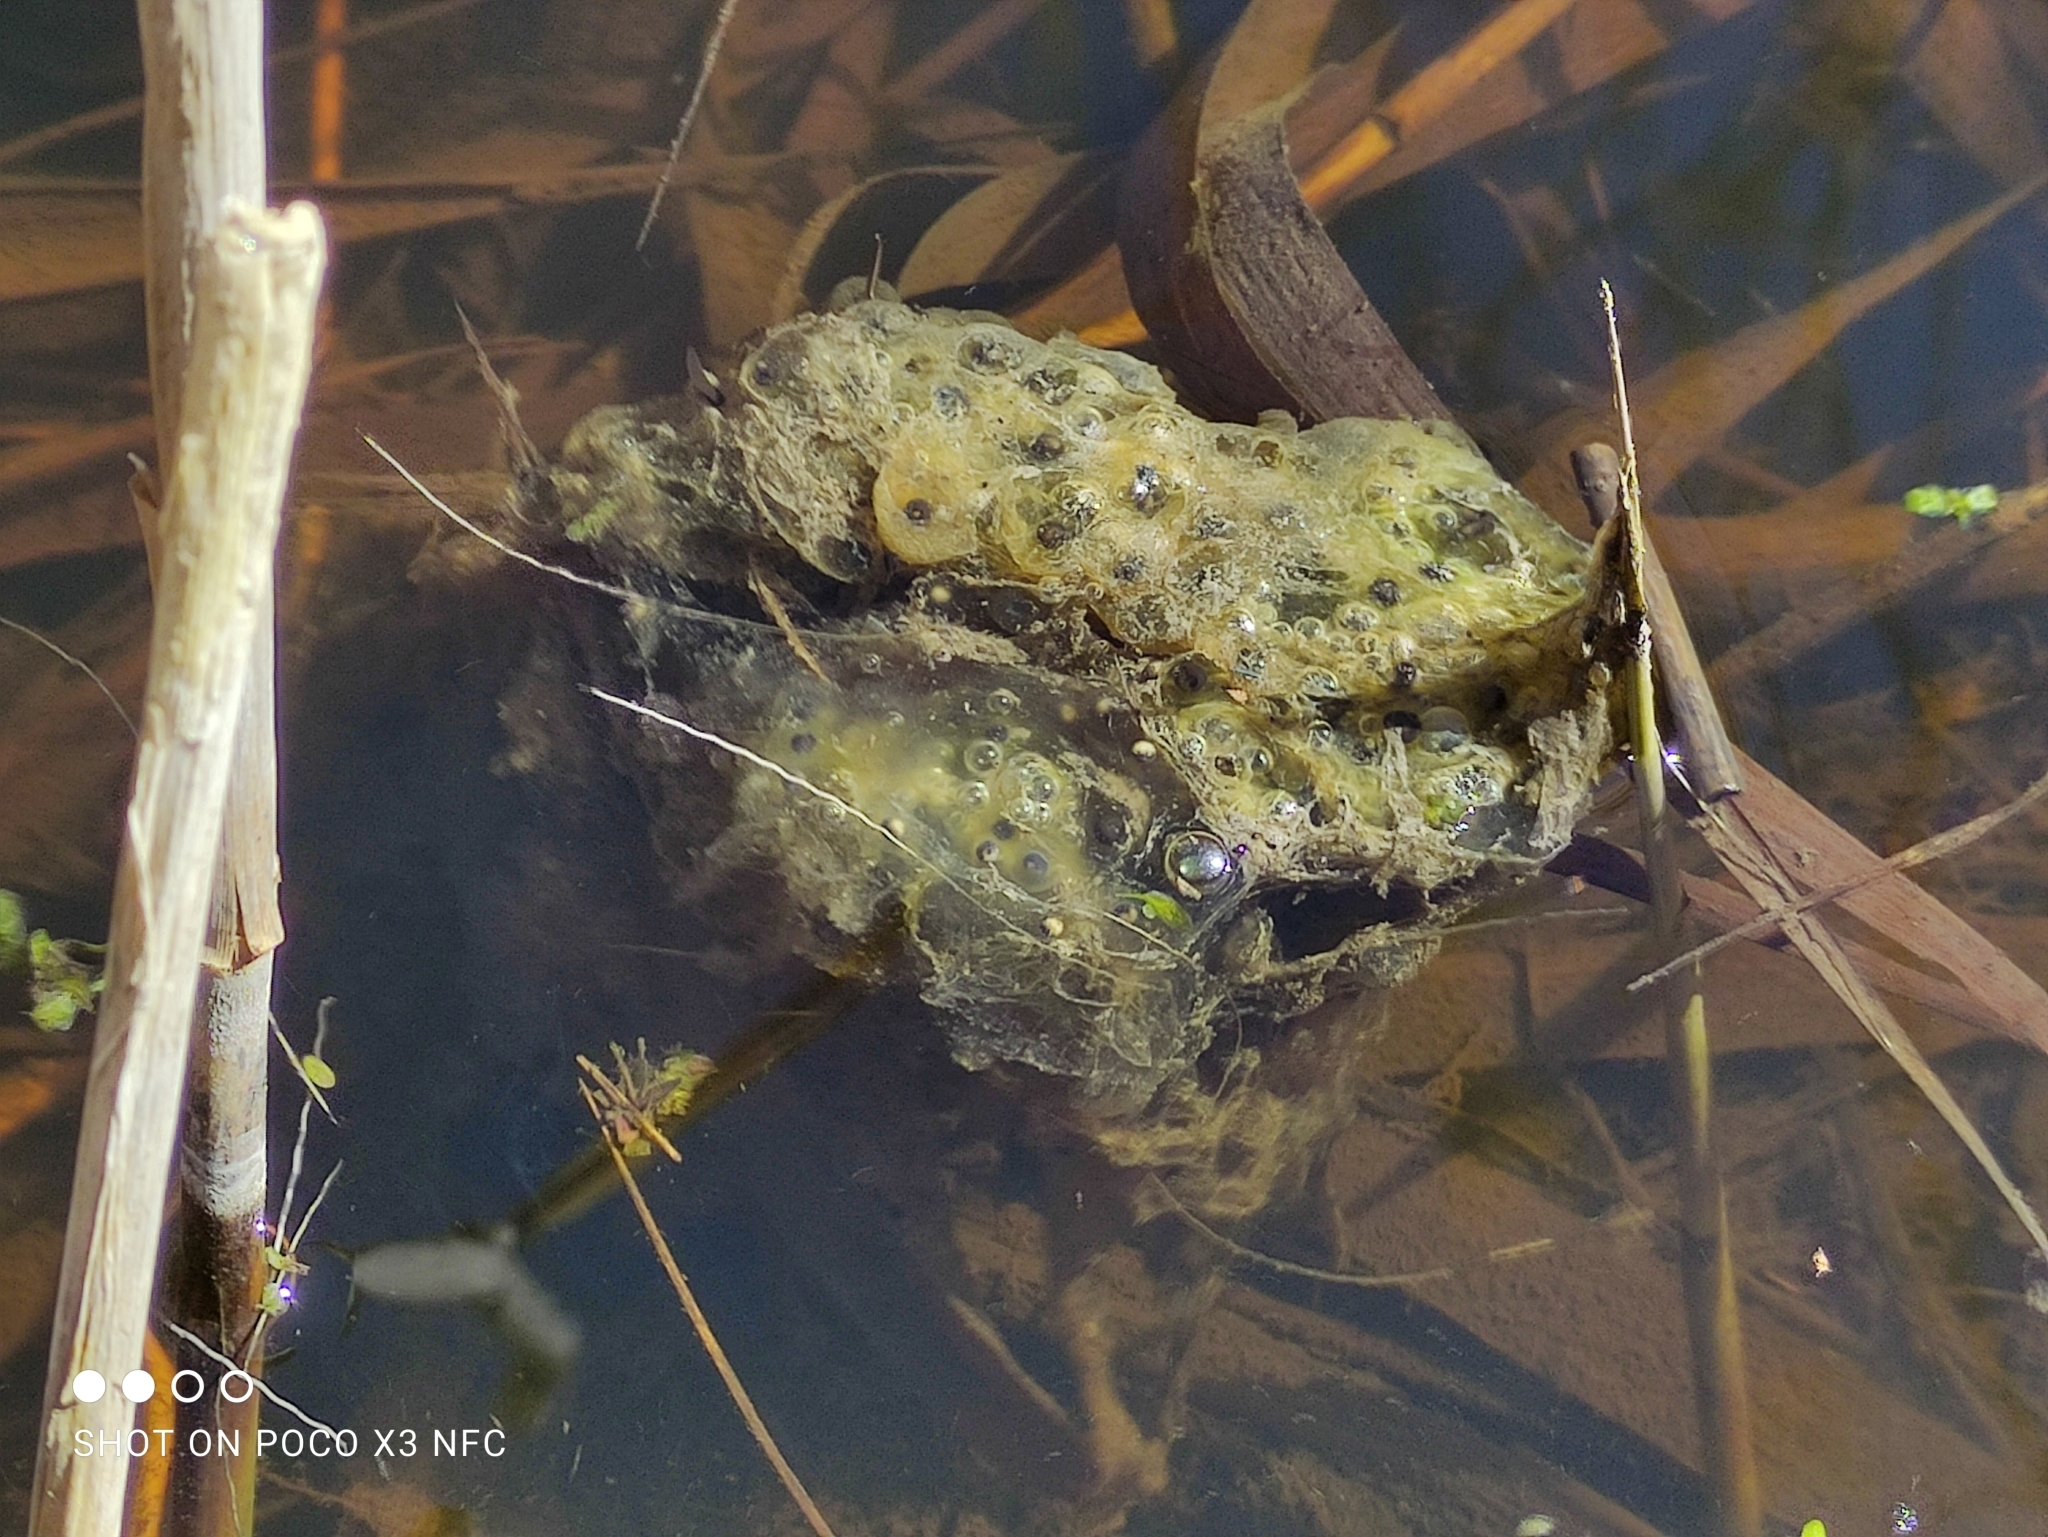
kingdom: Animalia
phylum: Chordata
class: Amphibia
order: Anura
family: Ranidae
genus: Rana
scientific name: Rana dalmatina
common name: Agile frog
